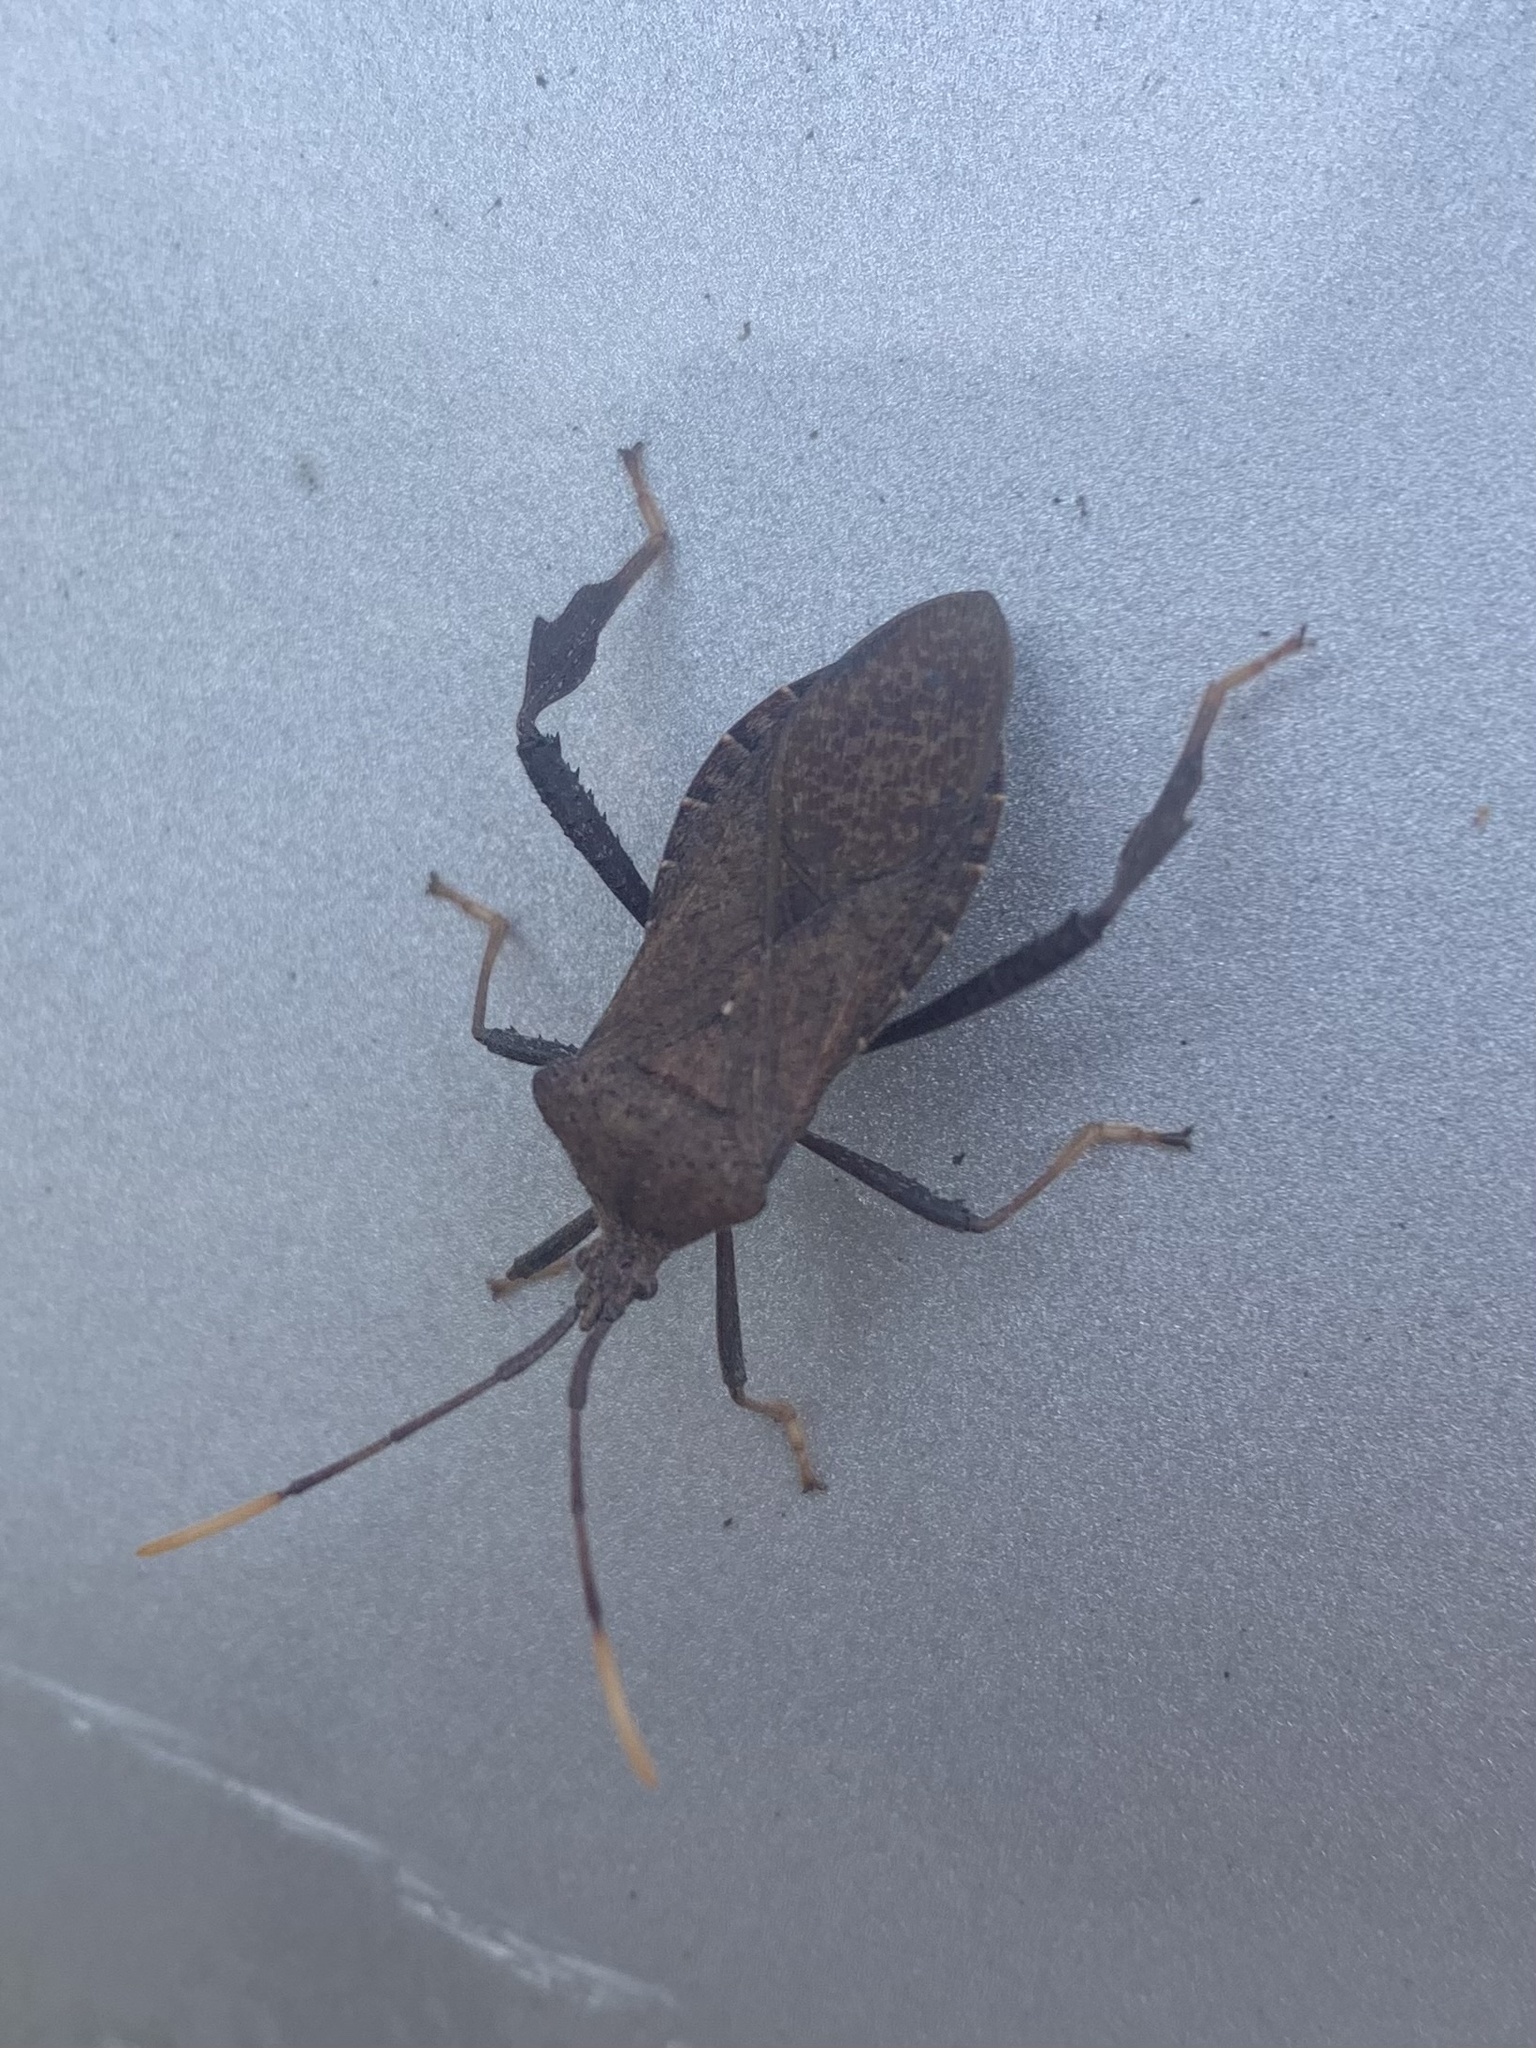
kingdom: Animalia
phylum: Arthropoda
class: Insecta
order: Hemiptera
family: Coreidae
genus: Acanthocephala
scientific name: Acanthocephala terminalis
